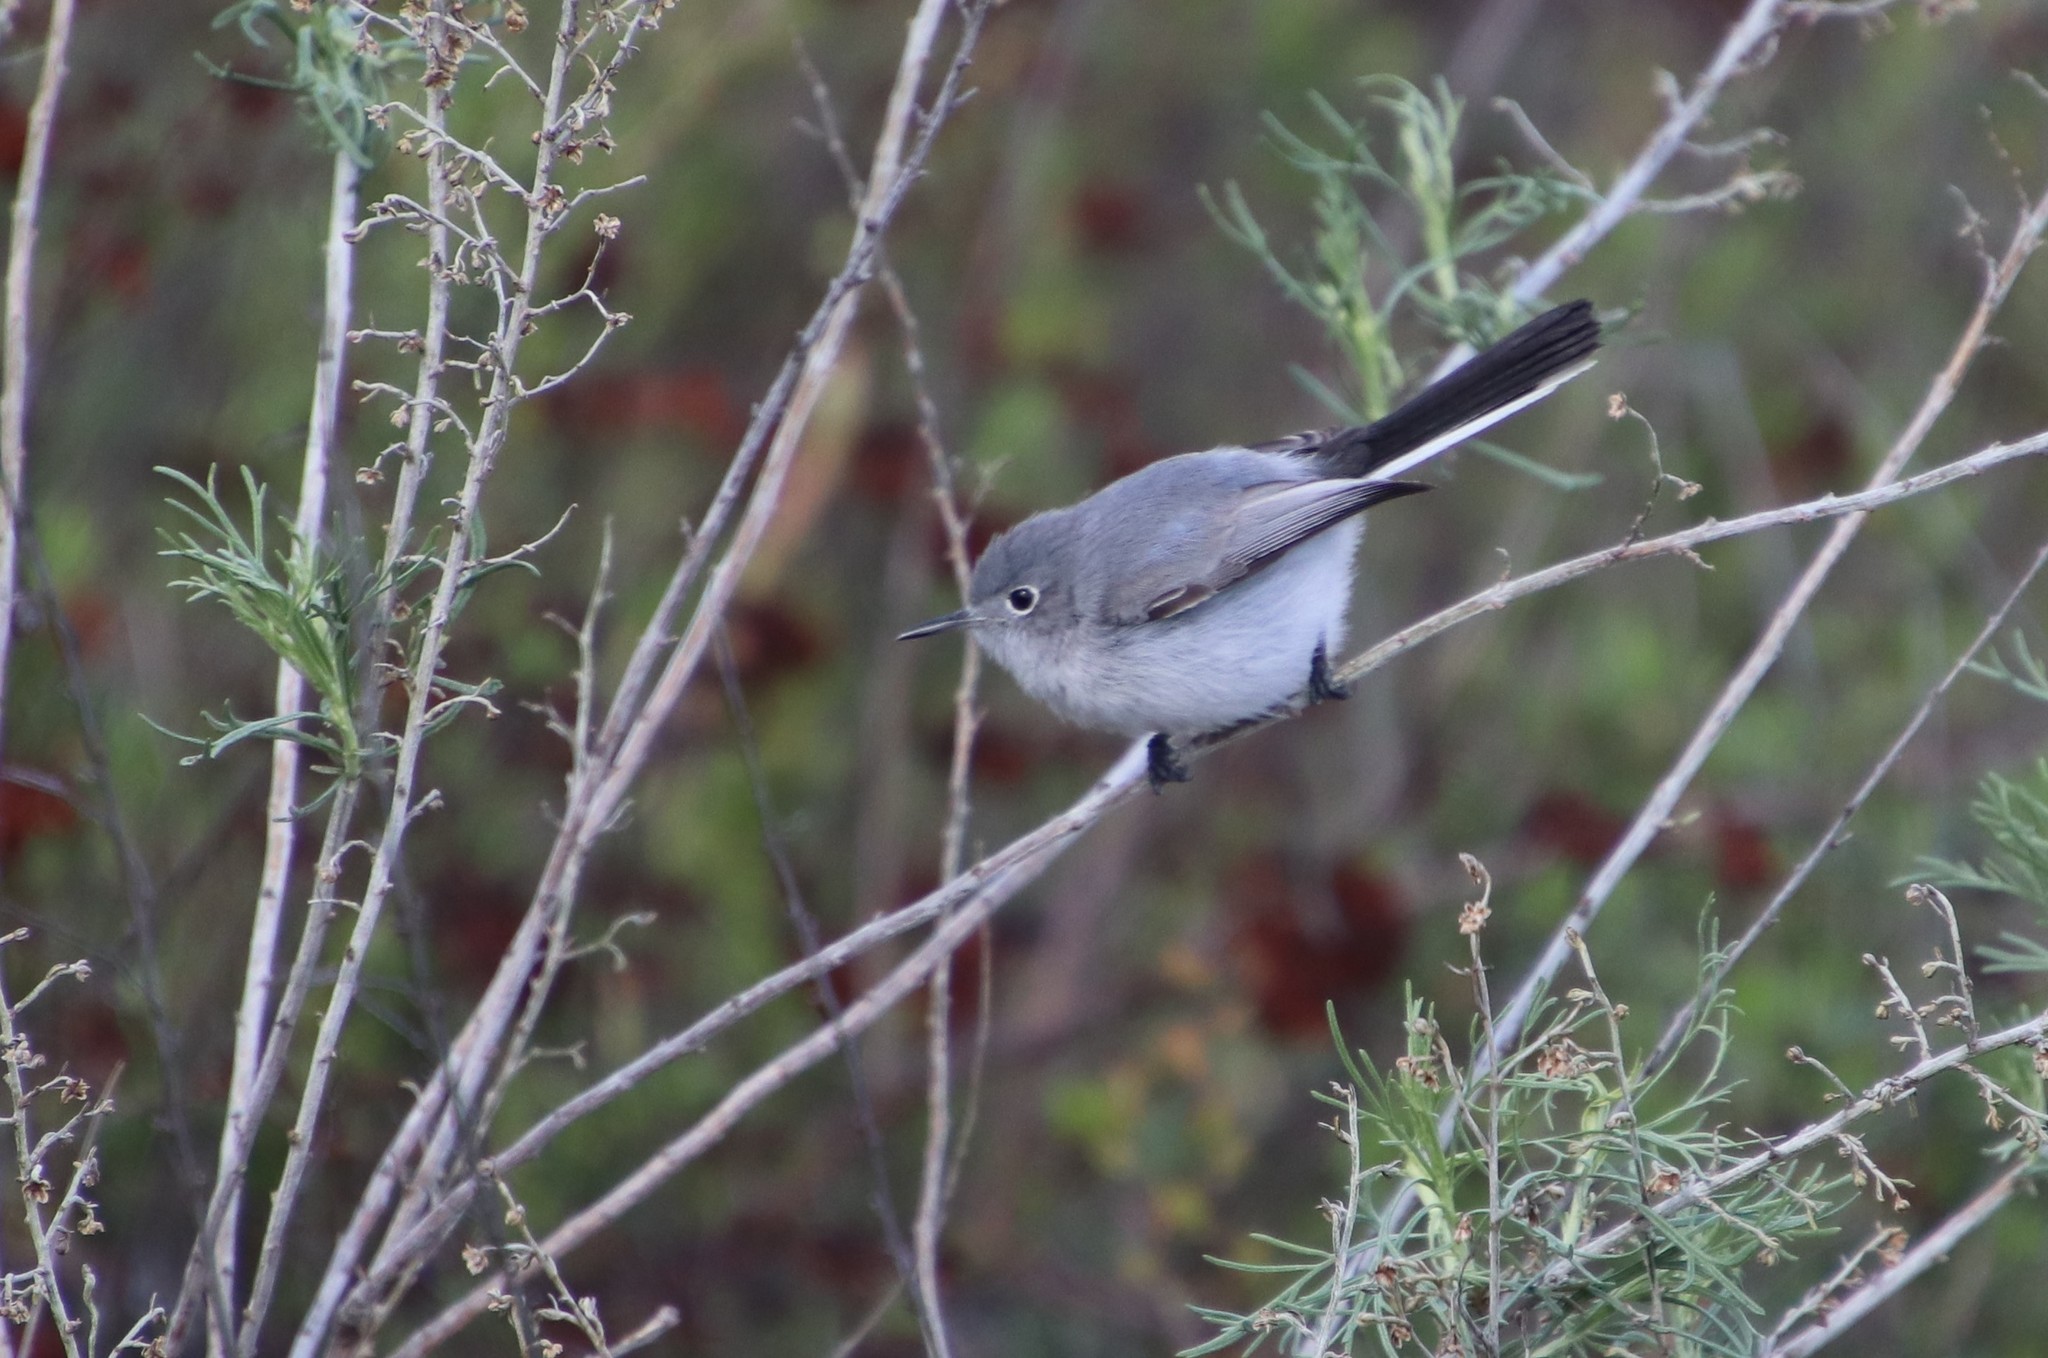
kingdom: Animalia
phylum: Chordata
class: Aves
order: Passeriformes
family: Polioptilidae
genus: Polioptila
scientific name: Polioptila caerulea
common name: Blue-gray gnatcatcher
